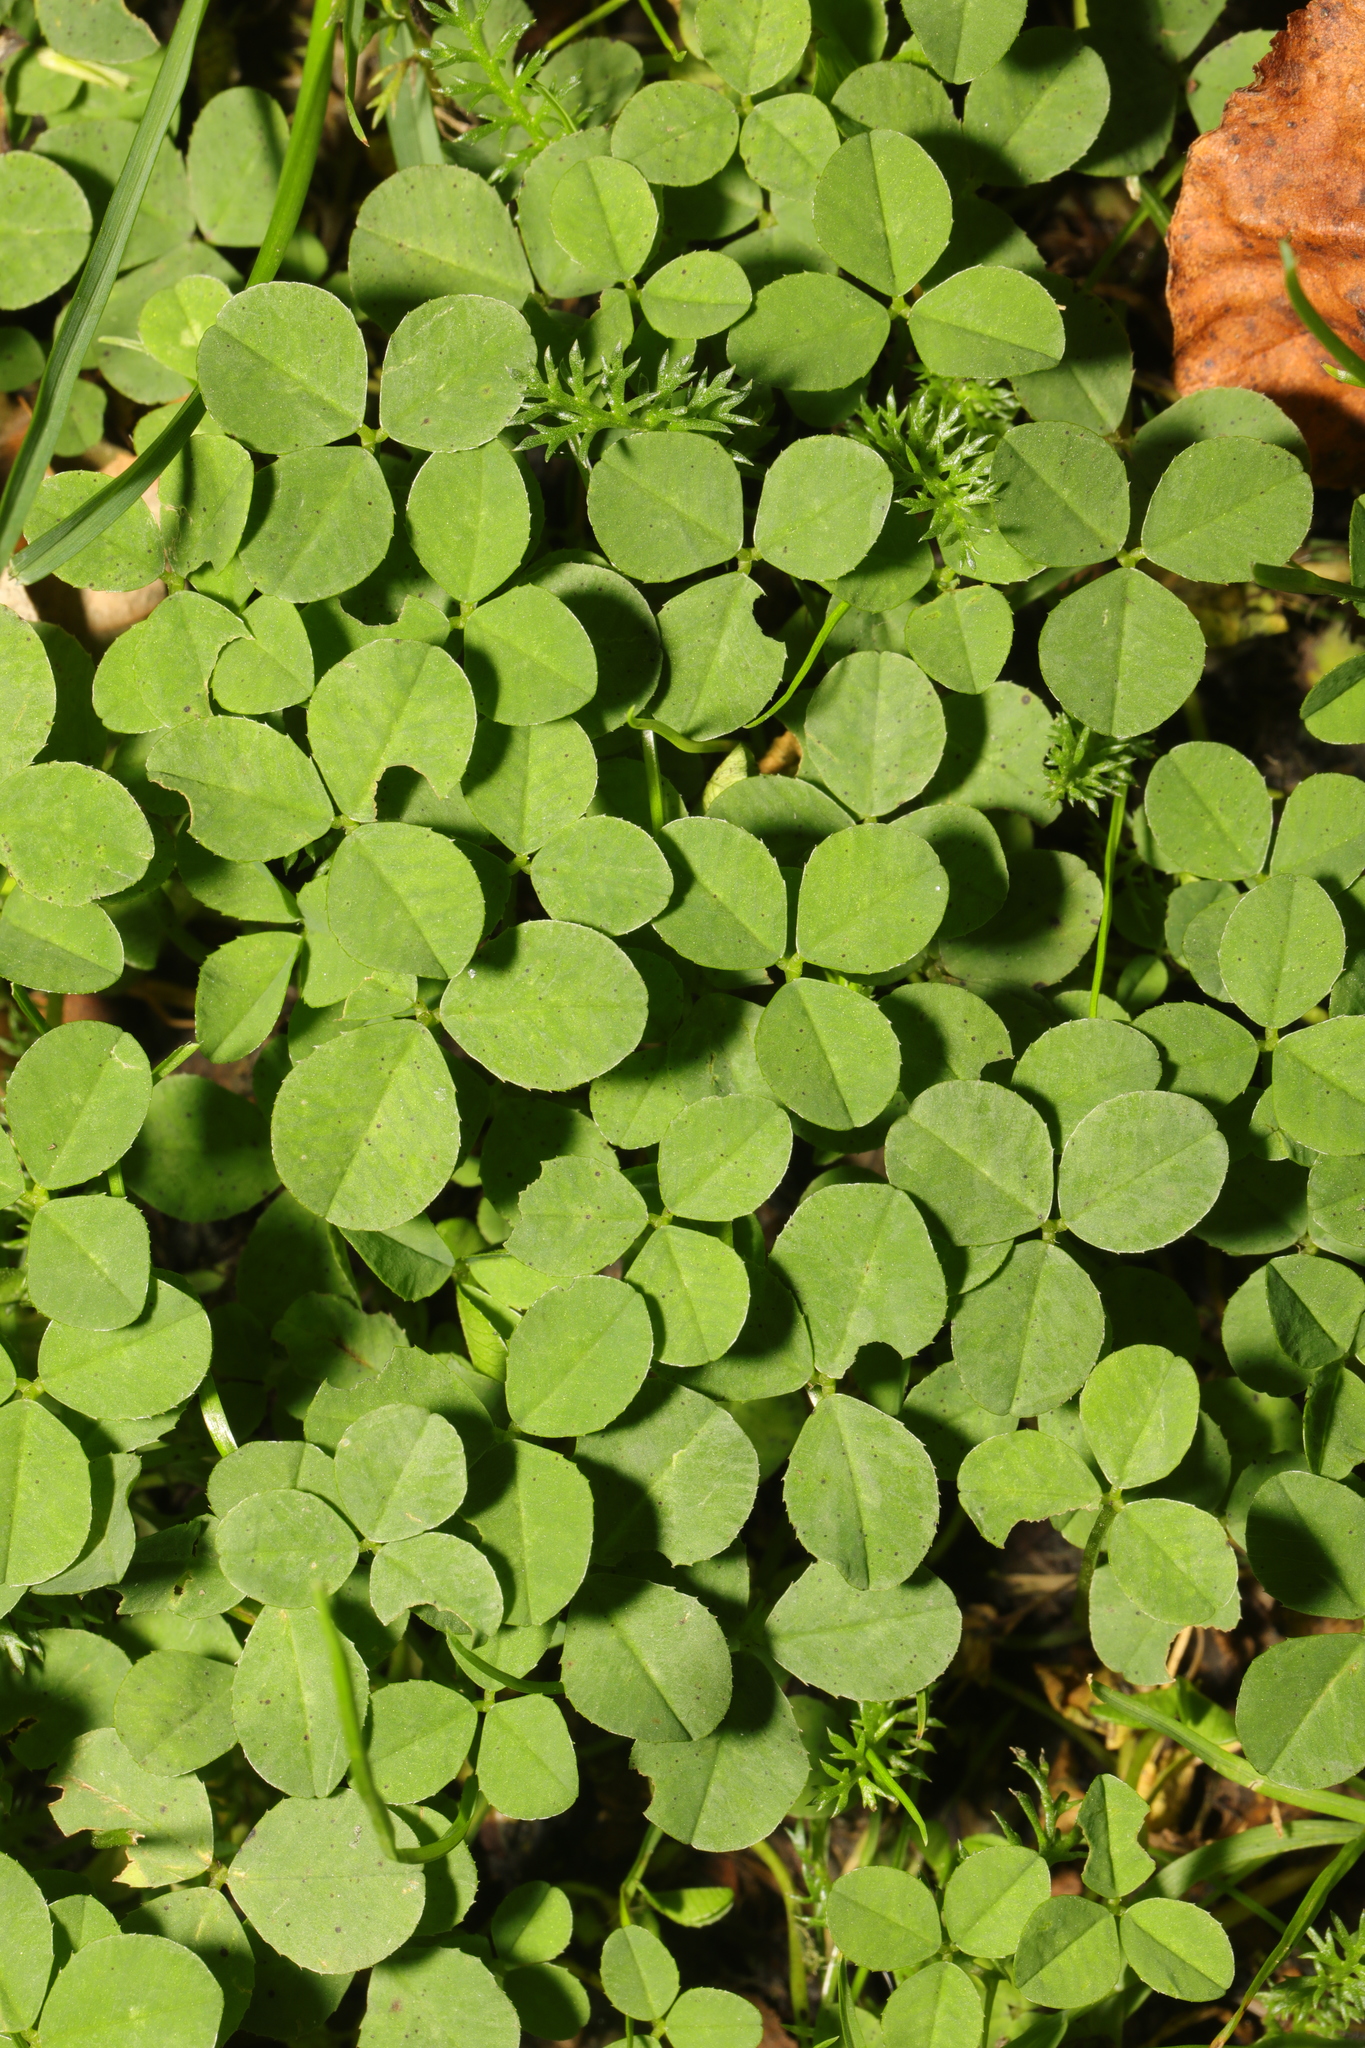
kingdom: Plantae
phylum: Tracheophyta
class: Magnoliopsida
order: Fabales
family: Fabaceae
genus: Trifolium
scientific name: Trifolium repens
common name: White clover
